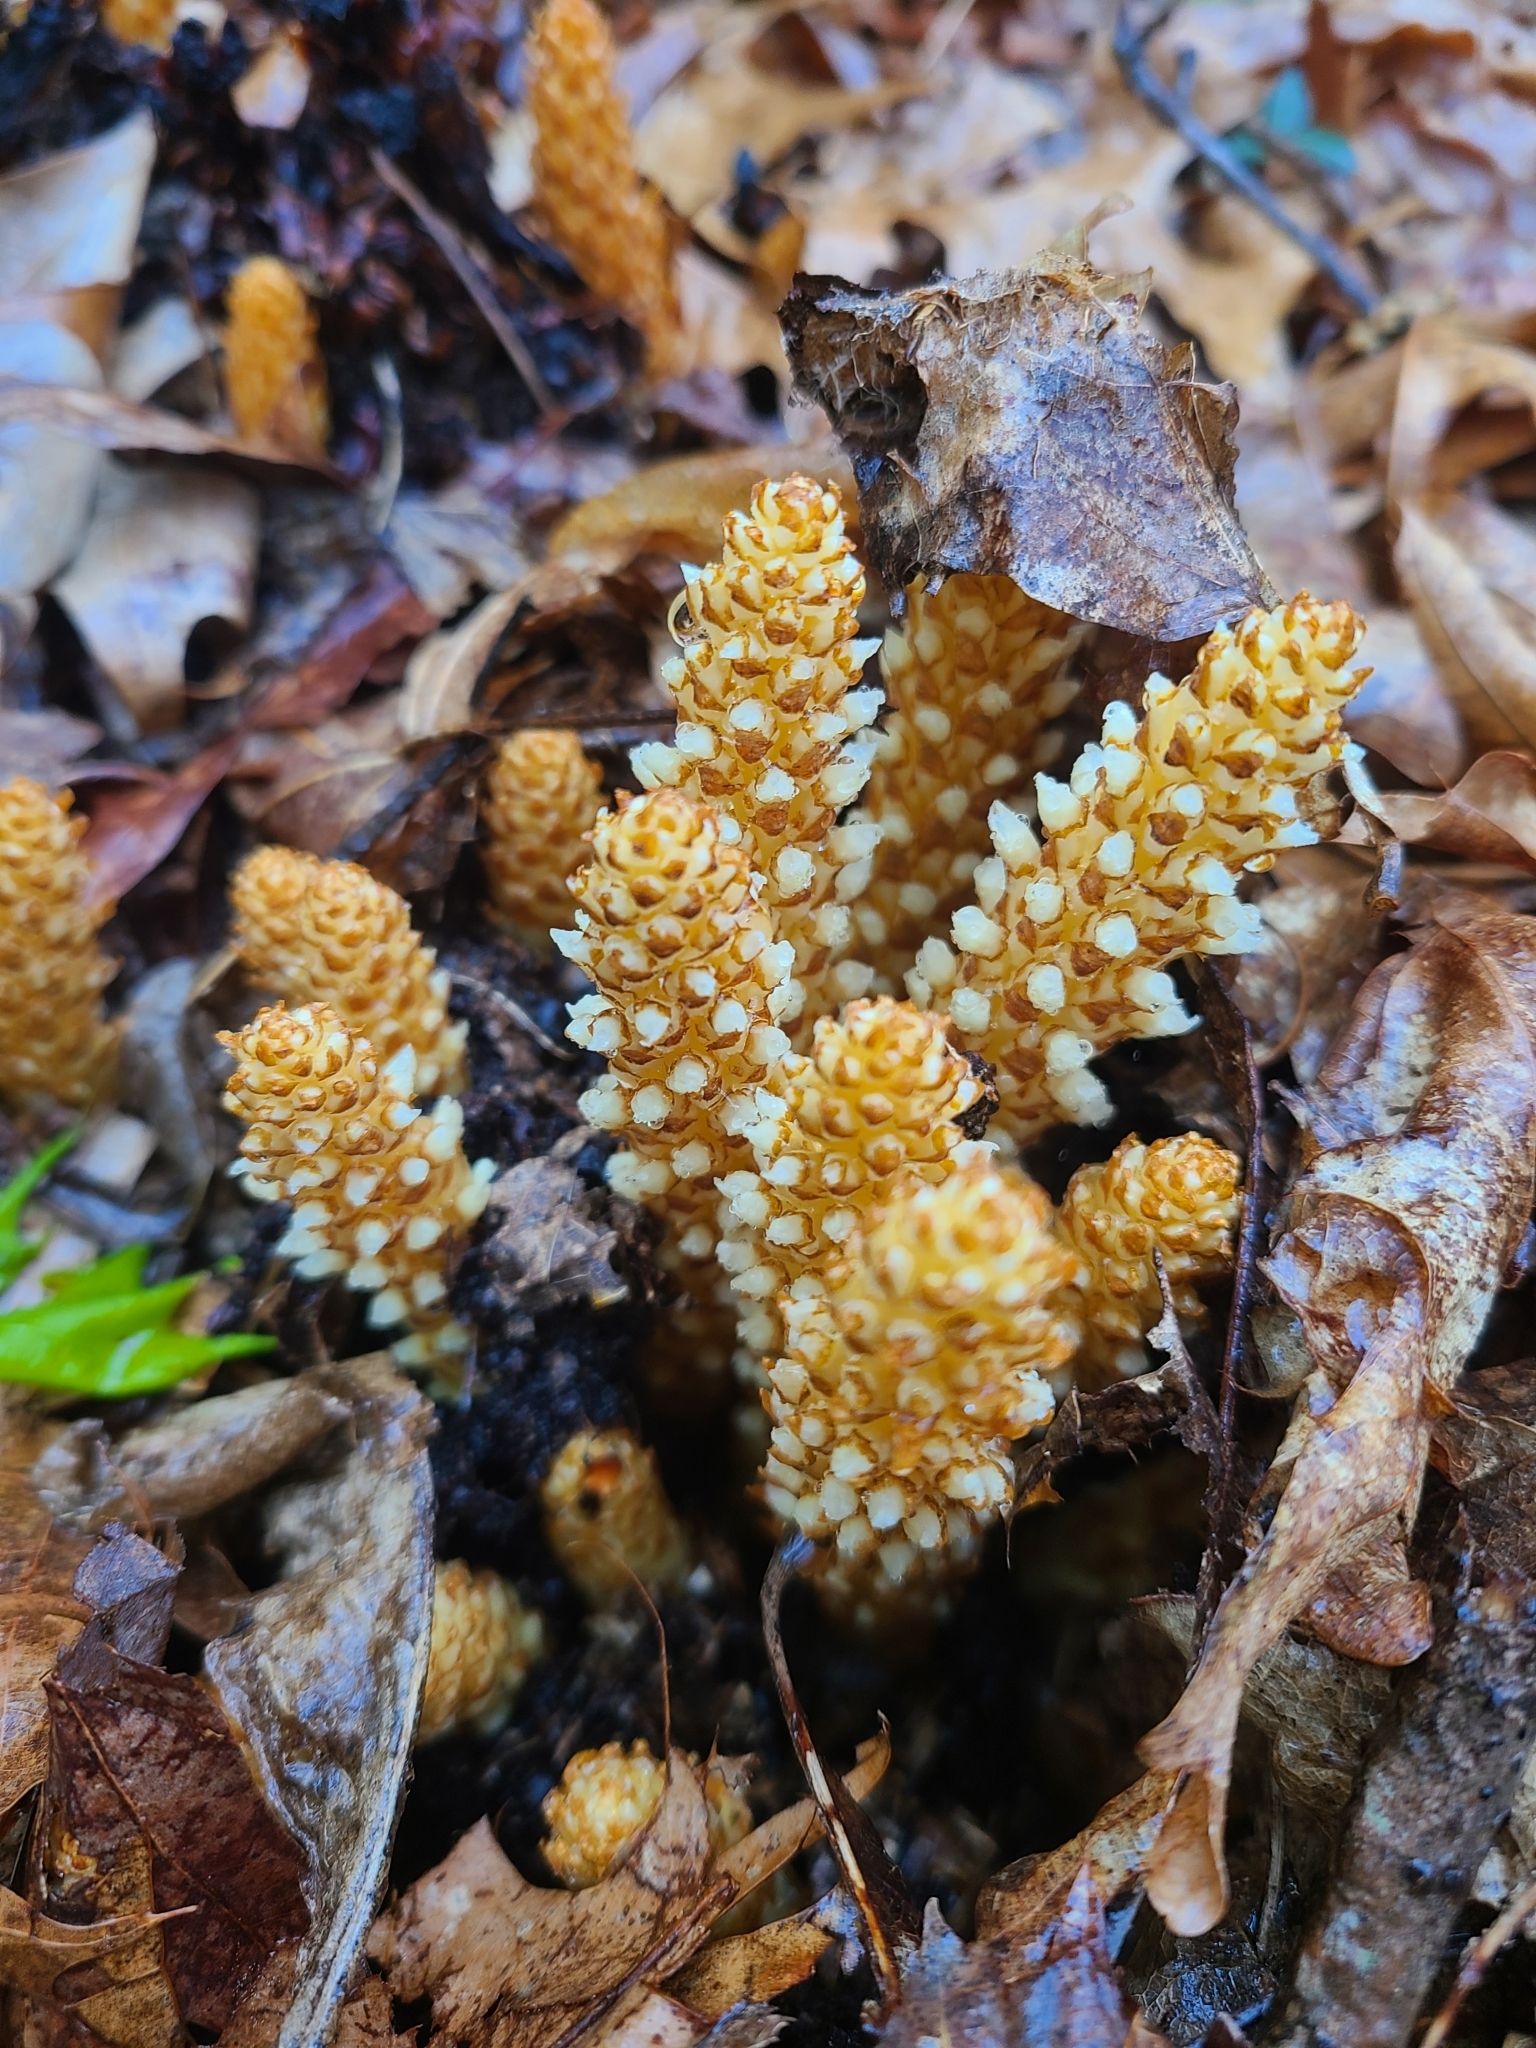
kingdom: Plantae
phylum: Tracheophyta
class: Magnoliopsida
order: Lamiales
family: Orobanchaceae
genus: Conopholis
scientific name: Conopholis americana
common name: American cancer-root
